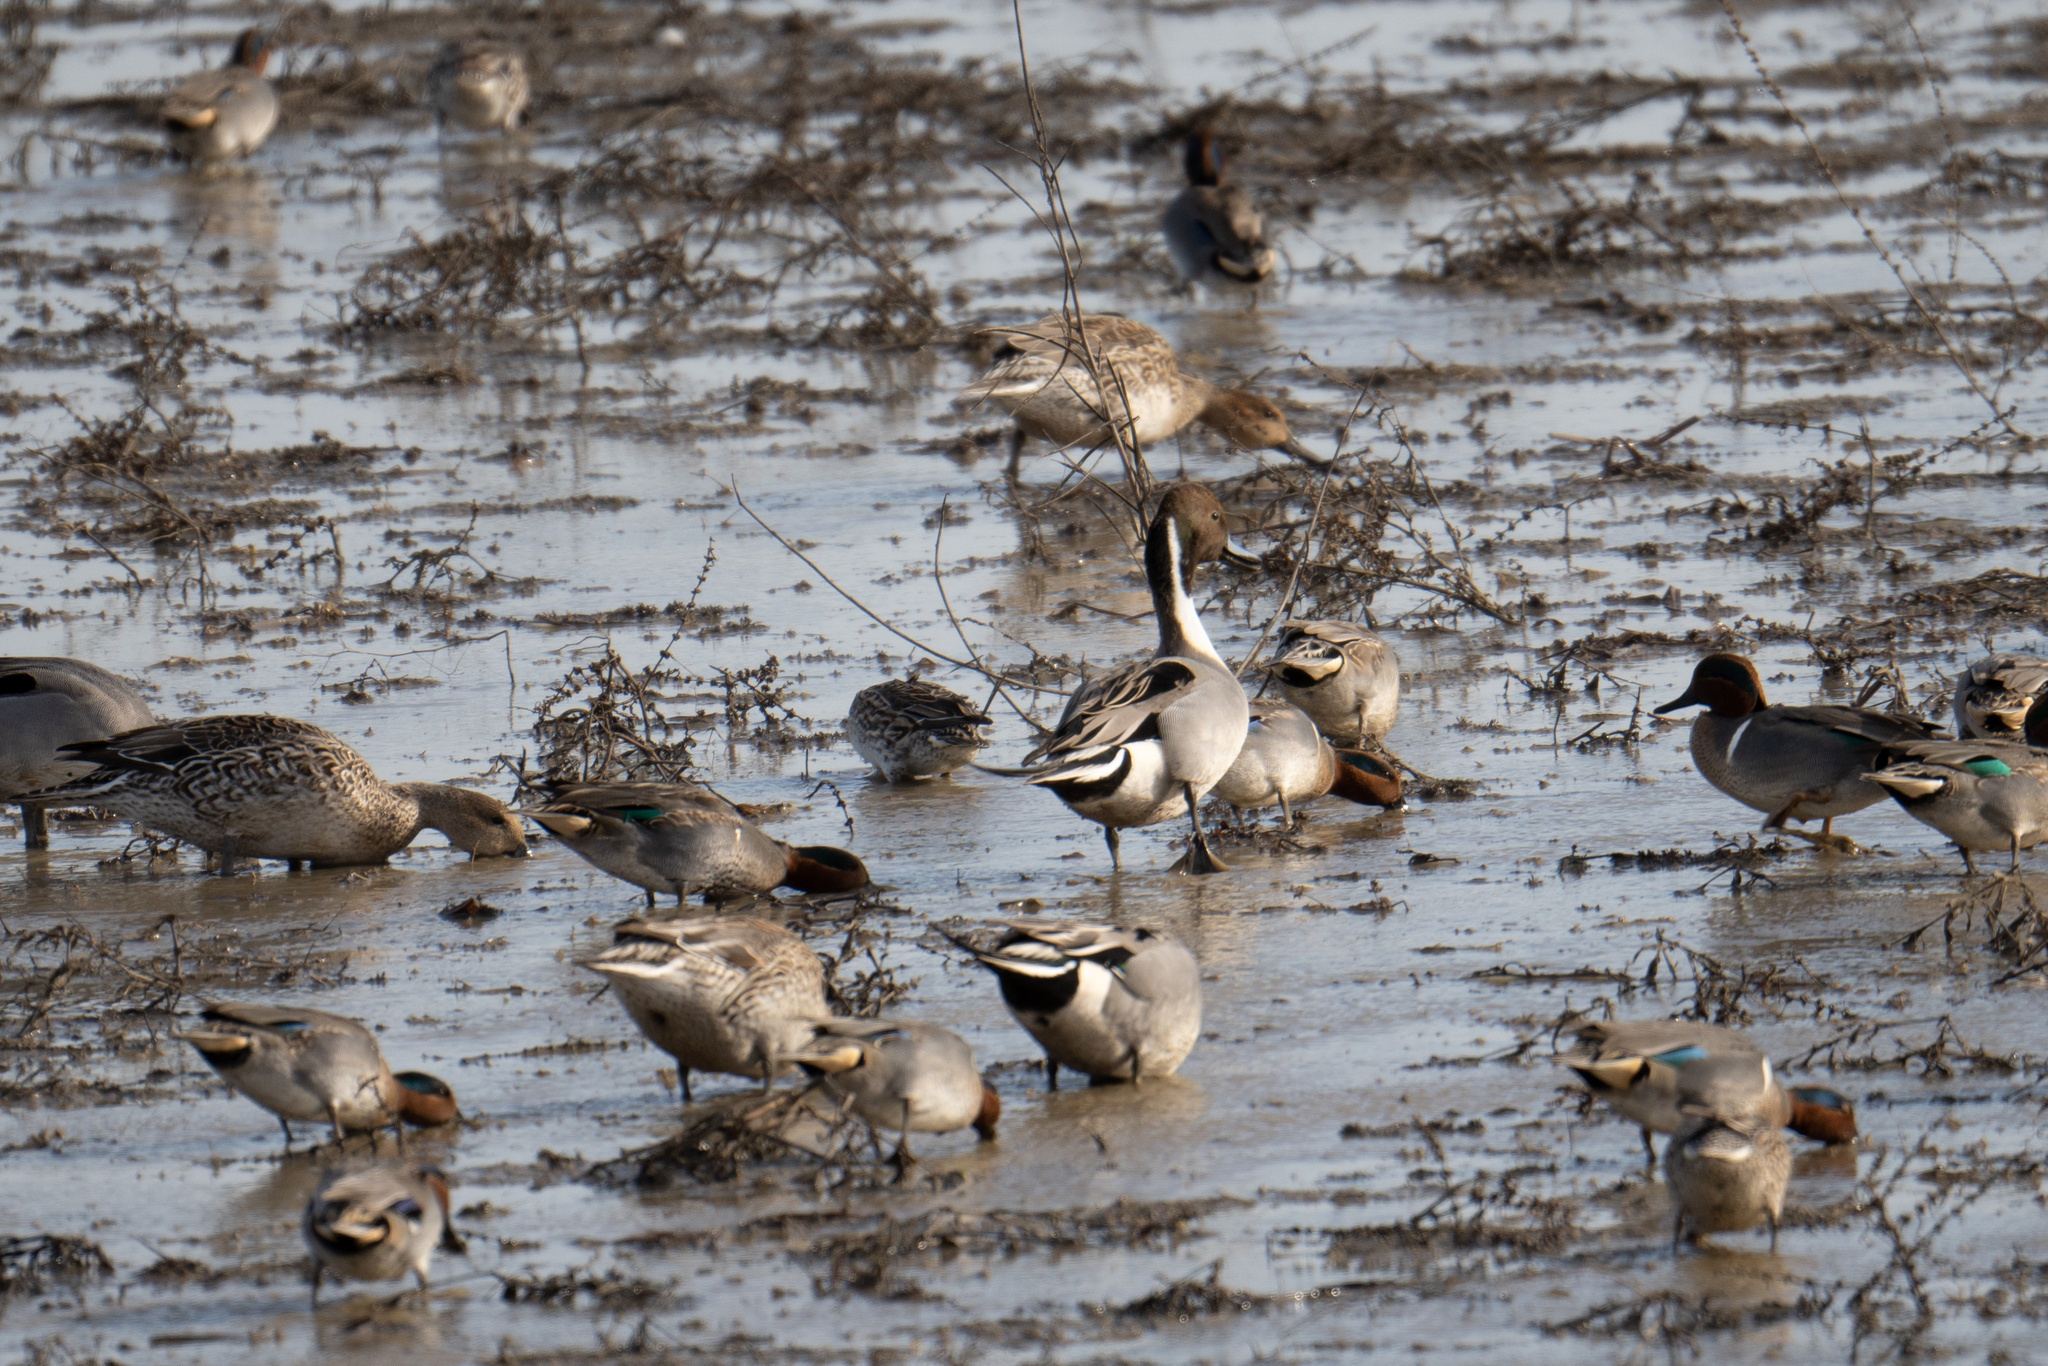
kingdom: Animalia
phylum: Chordata
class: Aves
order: Anseriformes
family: Anatidae
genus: Anas
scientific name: Anas acuta
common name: Northern pintail
